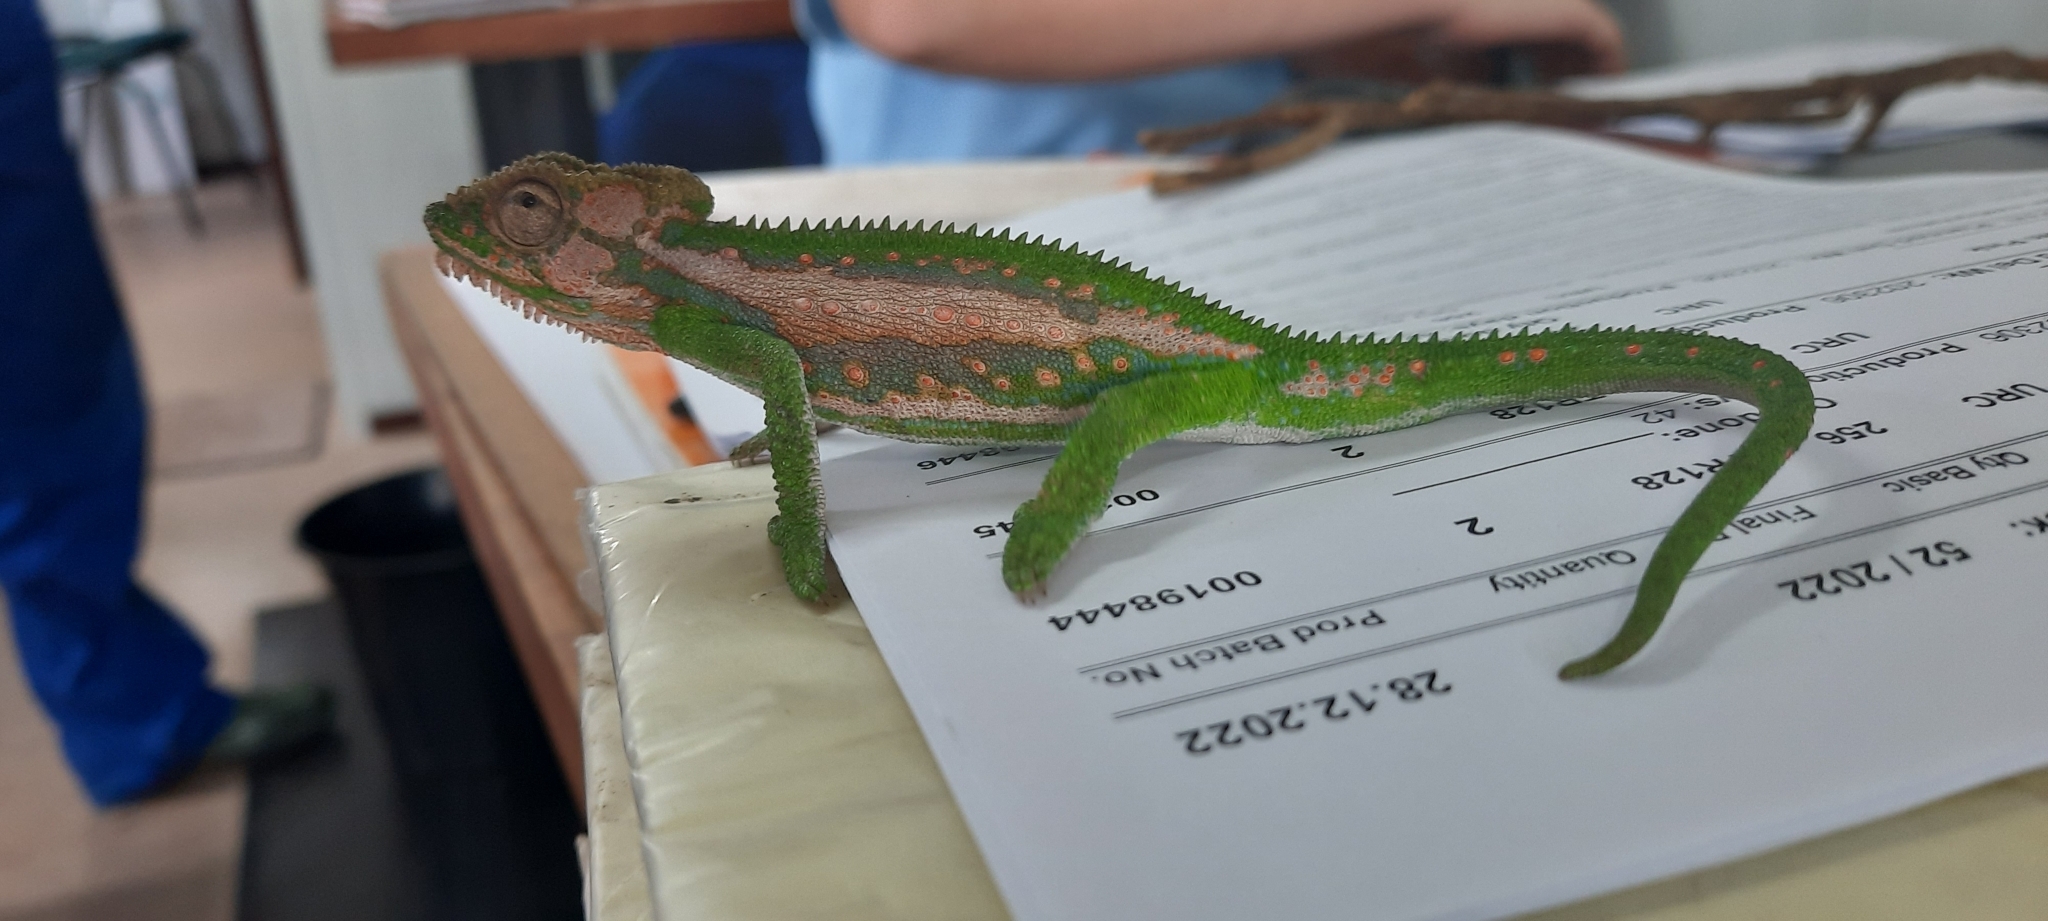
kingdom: Animalia
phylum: Chordata
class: Squamata
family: Chamaeleonidae
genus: Bradypodion
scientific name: Bradypodion pumilum
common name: Cape dwarf chameleon
